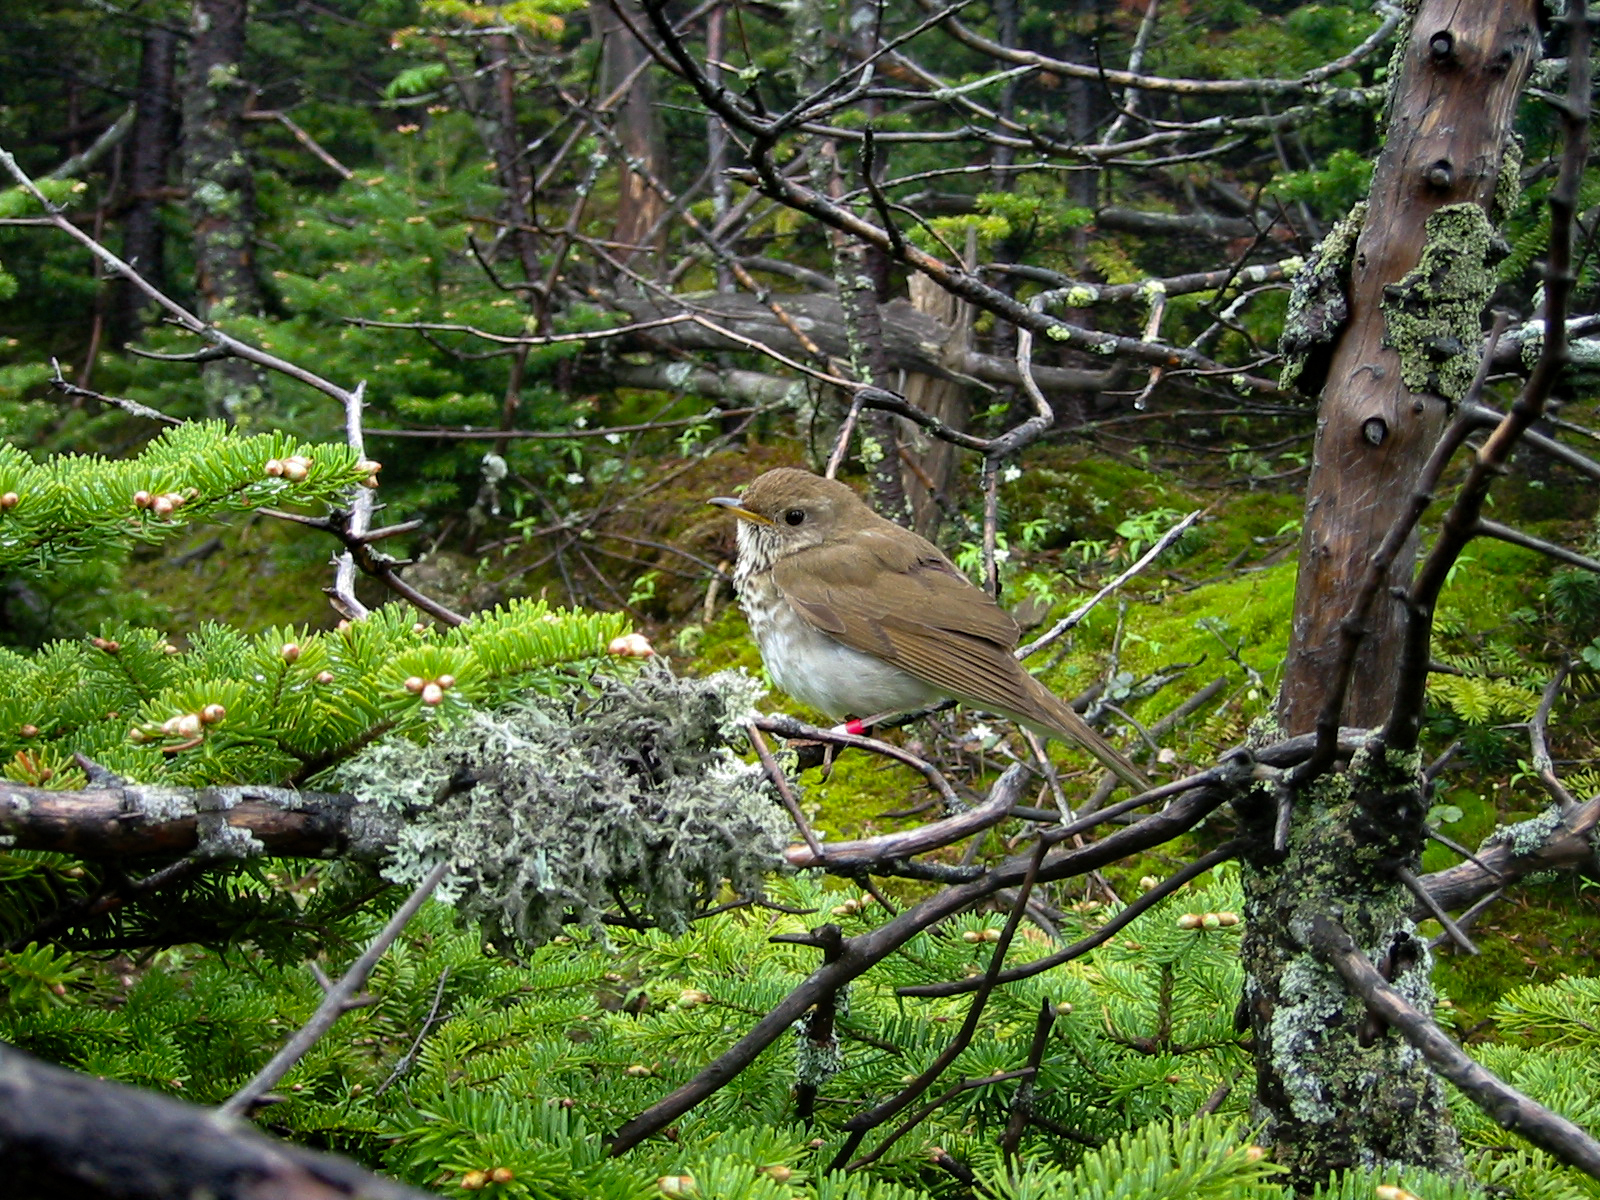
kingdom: Animalia
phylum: Chordata
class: Aves
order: Passeriformes
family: Turdidae
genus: Catharus
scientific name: Catharus bicknelli
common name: Bicknell's thrush
